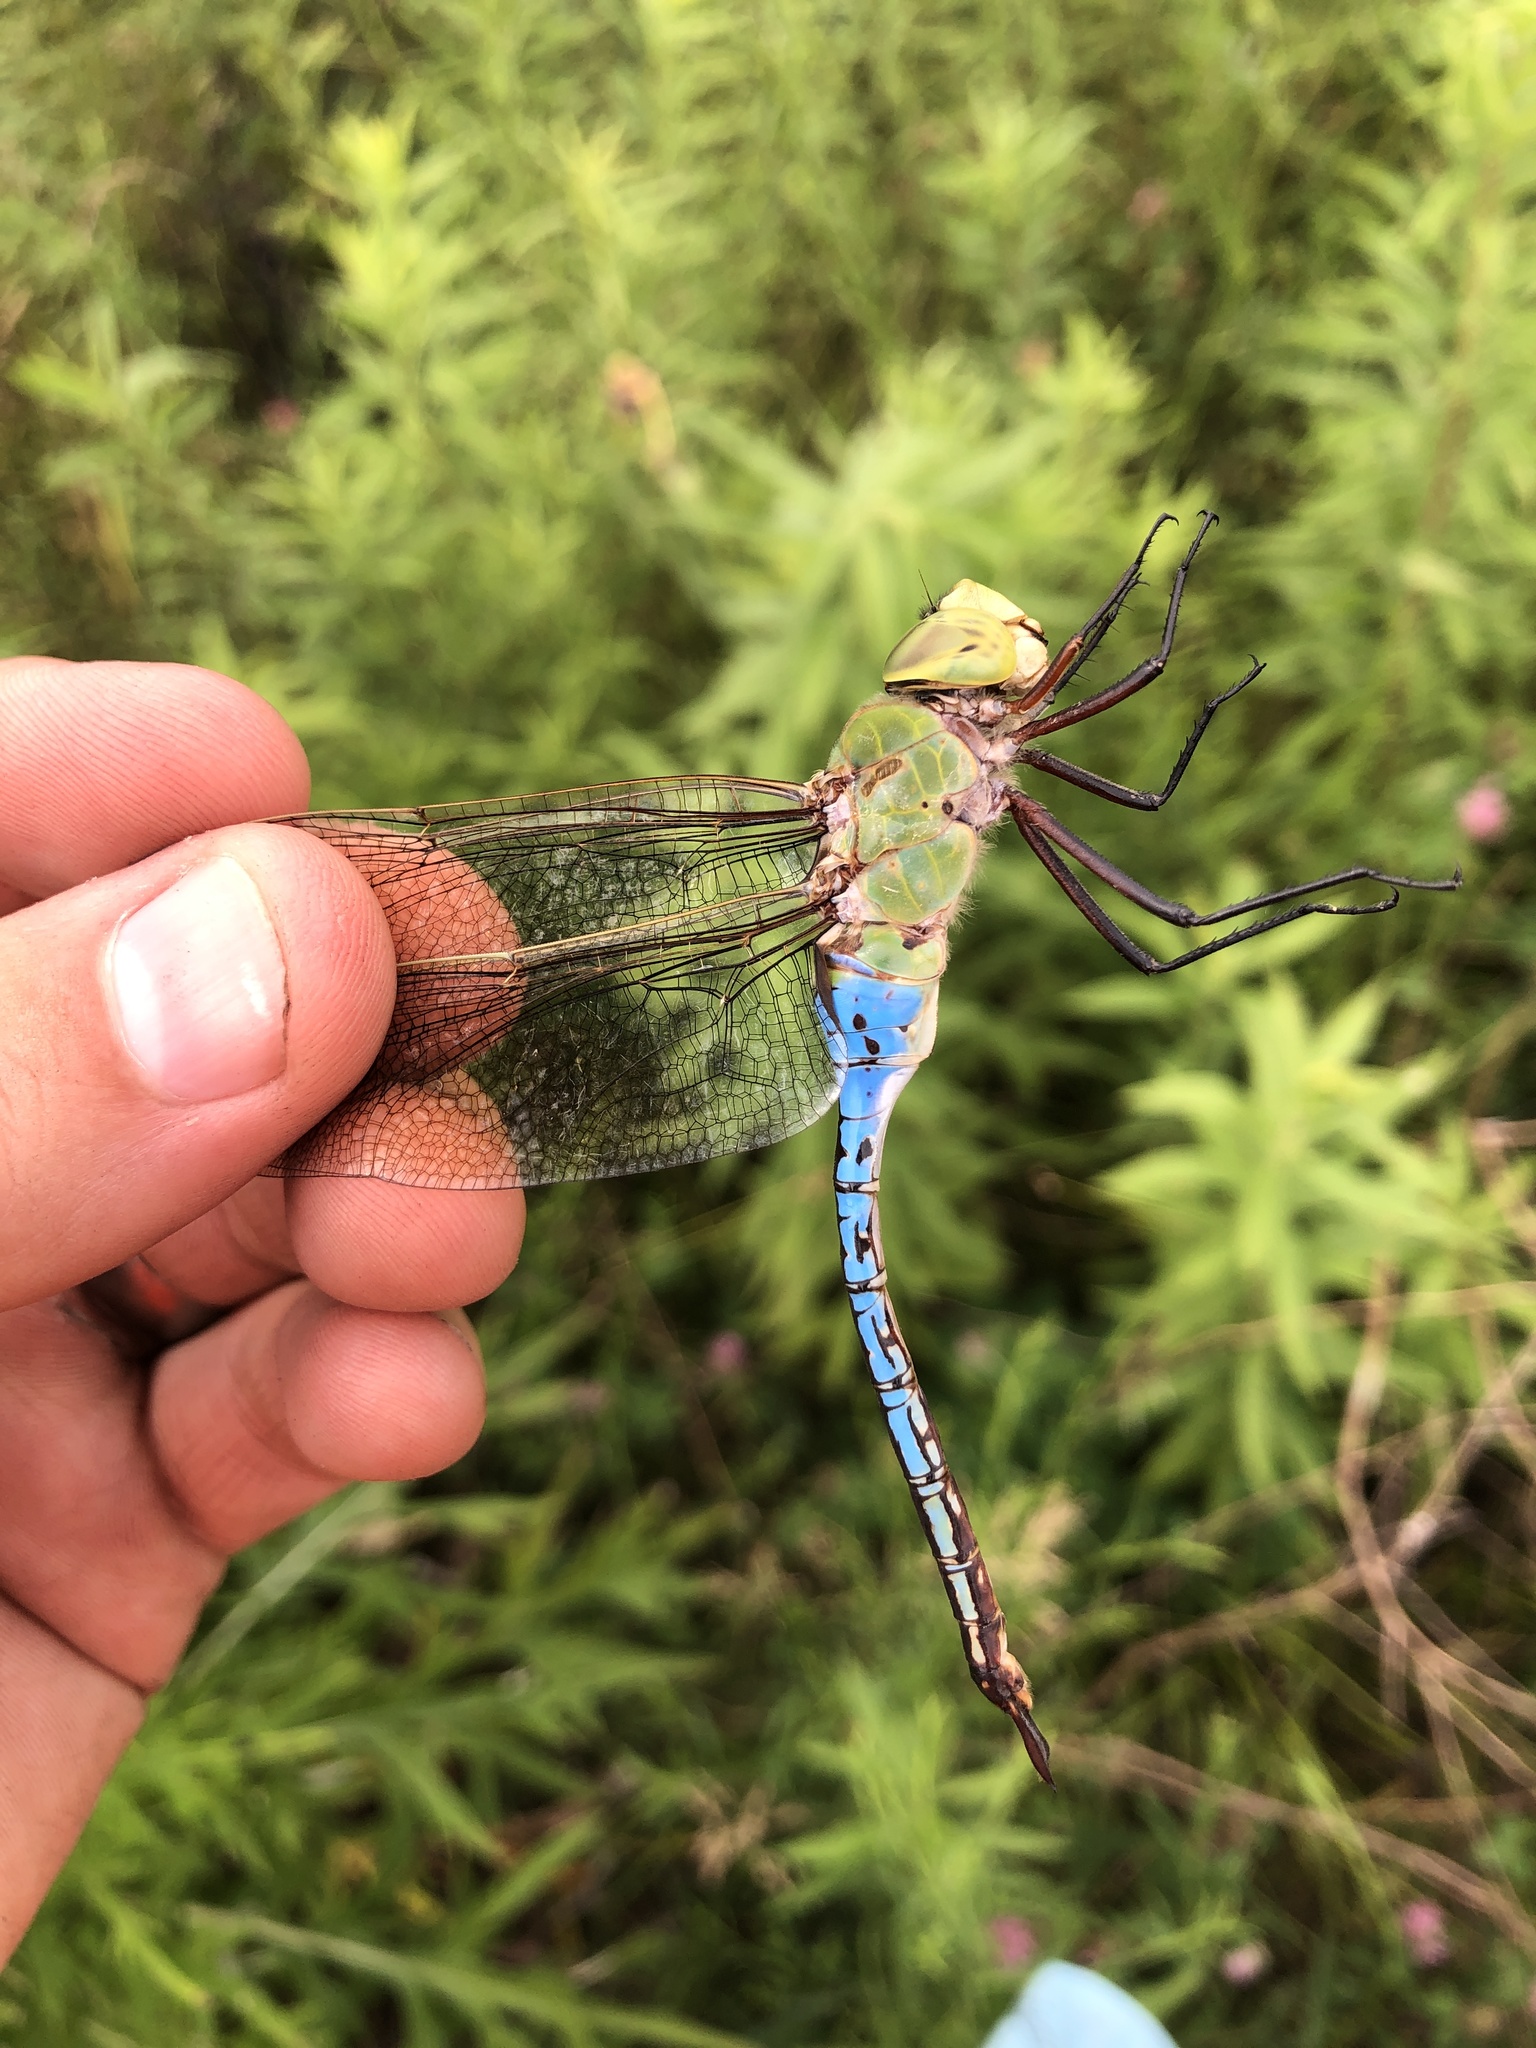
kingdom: Animalia
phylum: Arthropoda
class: Insecta
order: Odonata
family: Aeshnidae
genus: Anax
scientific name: Anax junius
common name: Common green darner
